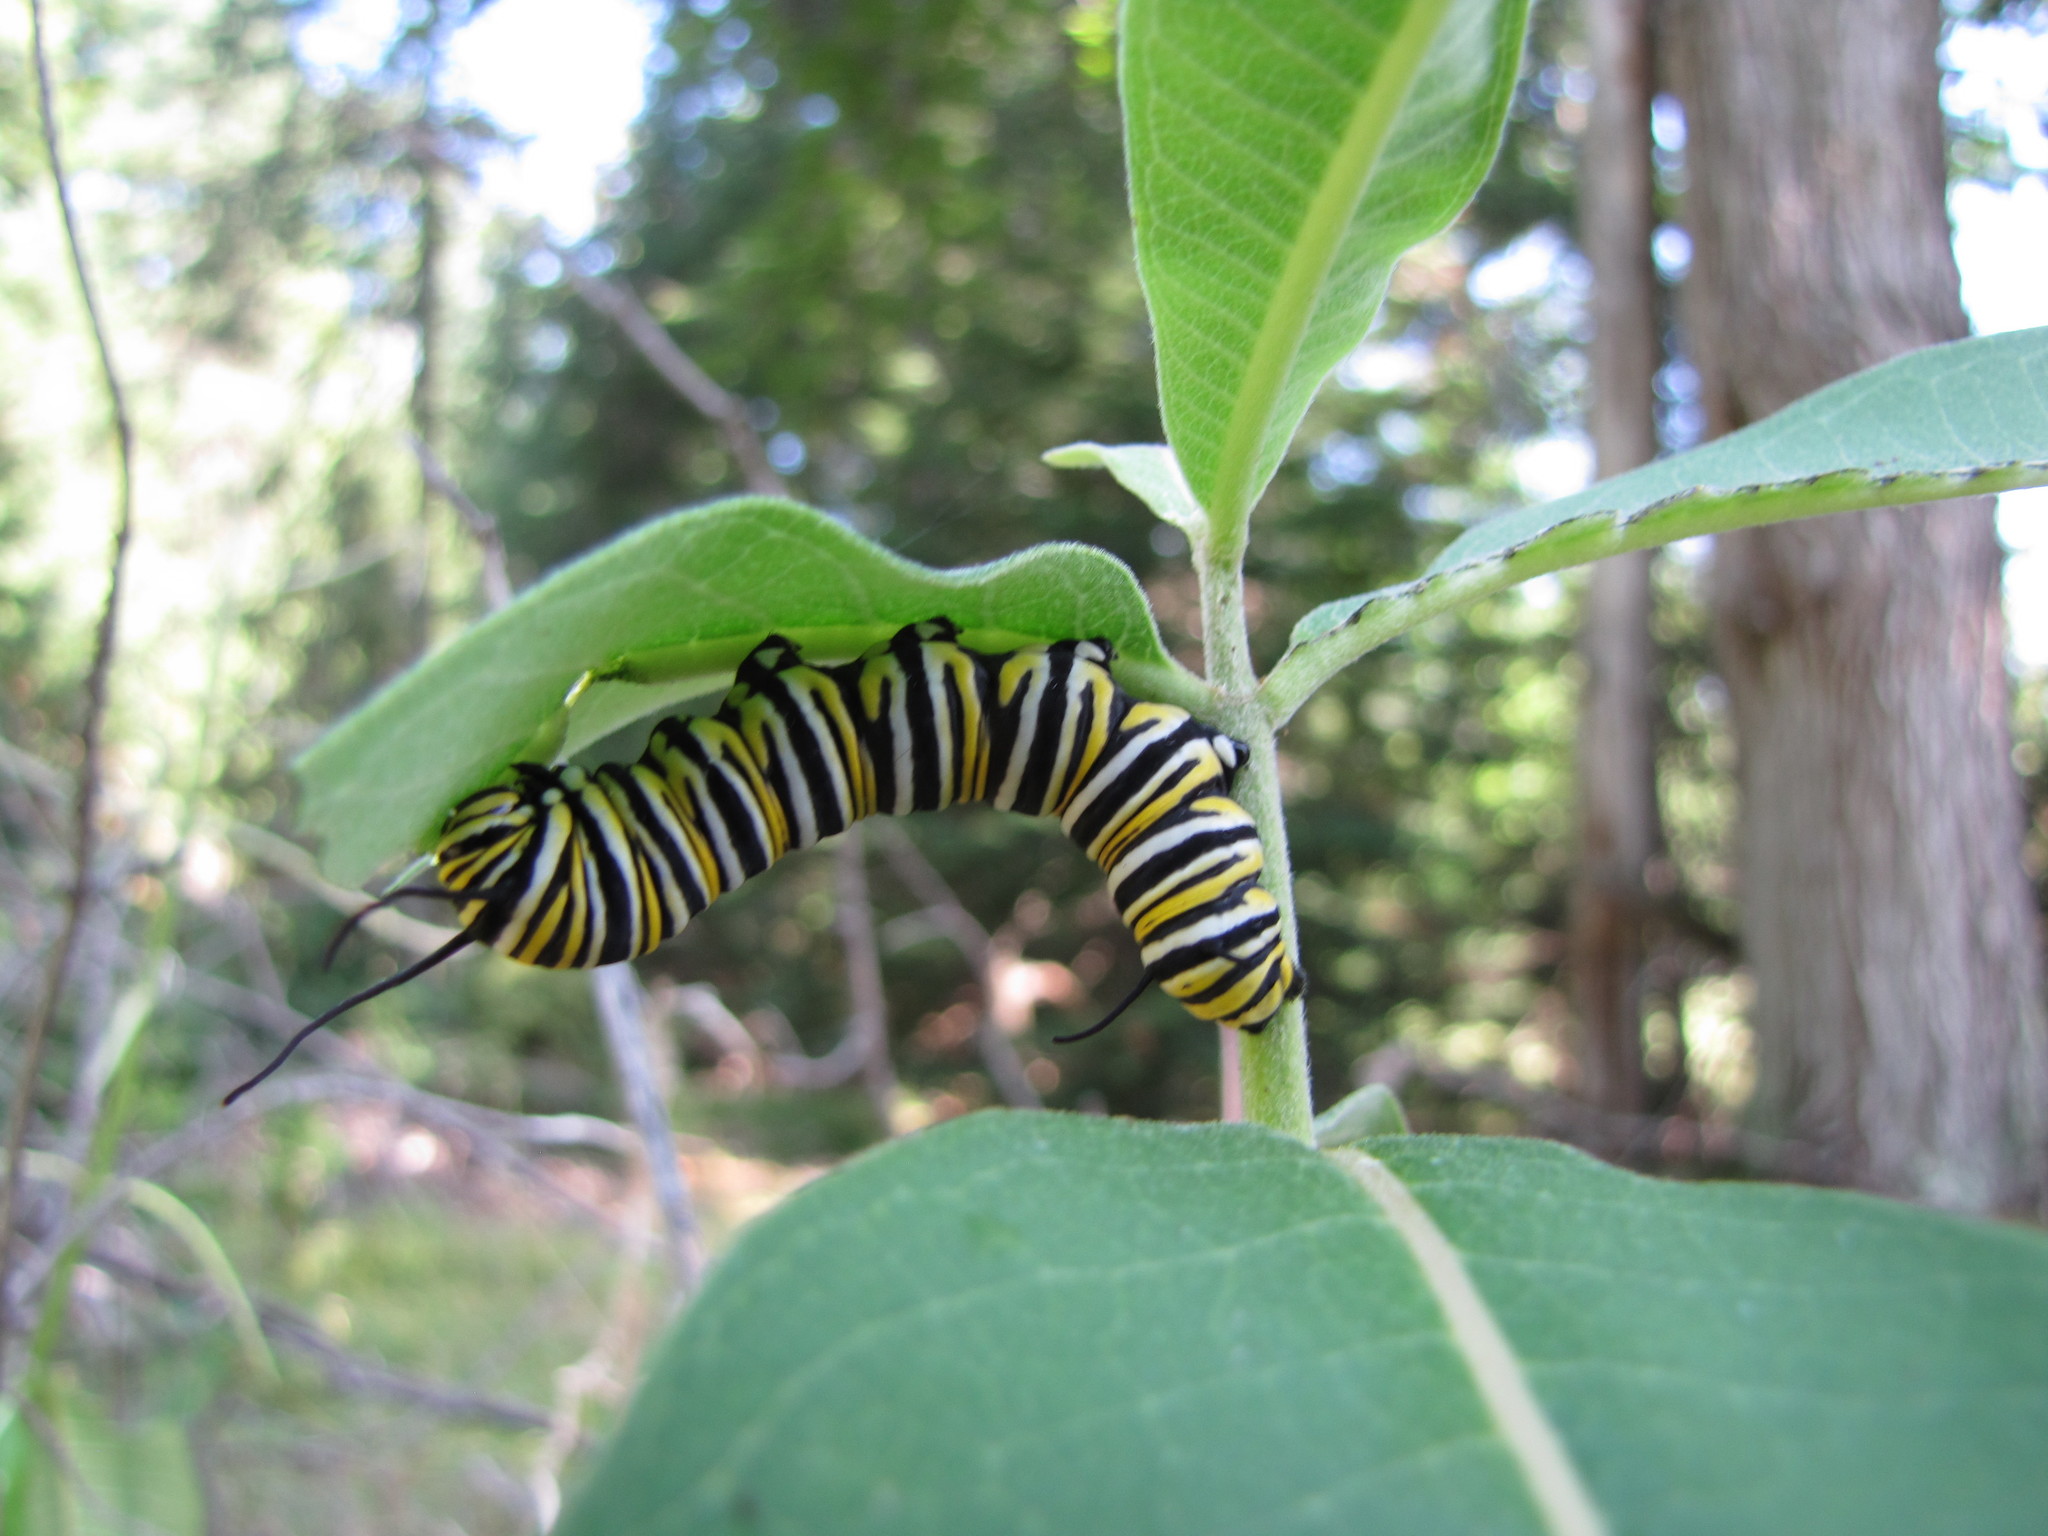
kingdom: Animalia
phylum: Arthropoda
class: Insecta
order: Lepidoptera
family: Nymphalidae
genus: Danaus
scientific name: Danaus plexippus
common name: Monarch
